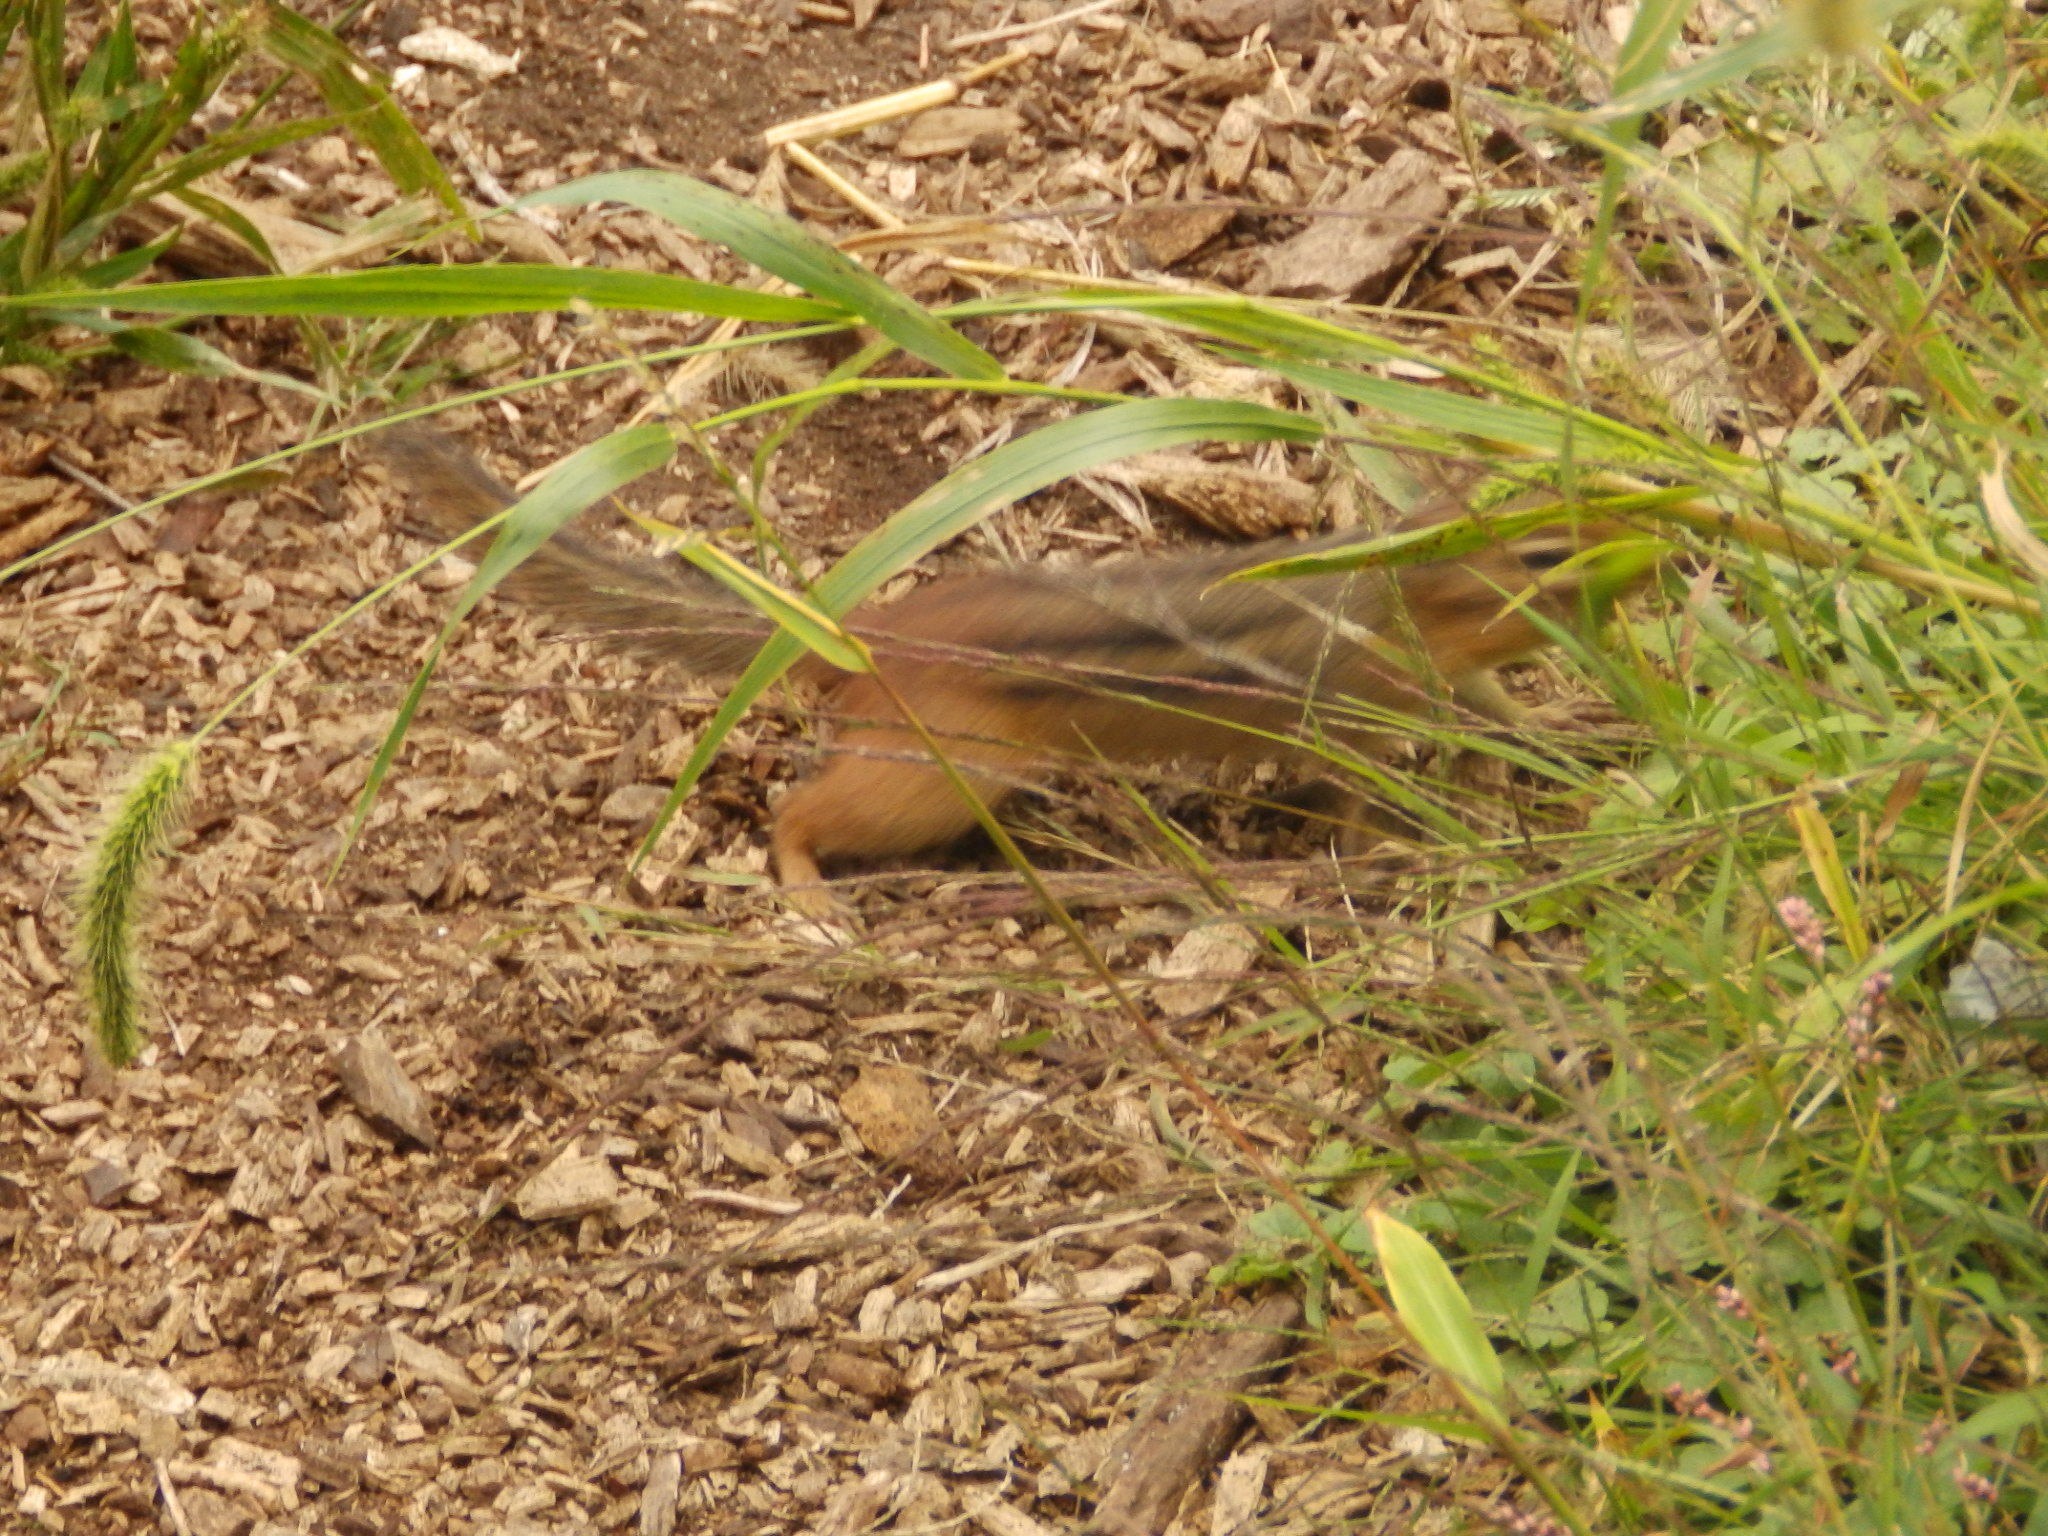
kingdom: Animalia
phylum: Chordata
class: Mammalia
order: Rodentia
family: Sciuridae
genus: Tamias
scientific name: Tamias striatus
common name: Eastern chipmunk
